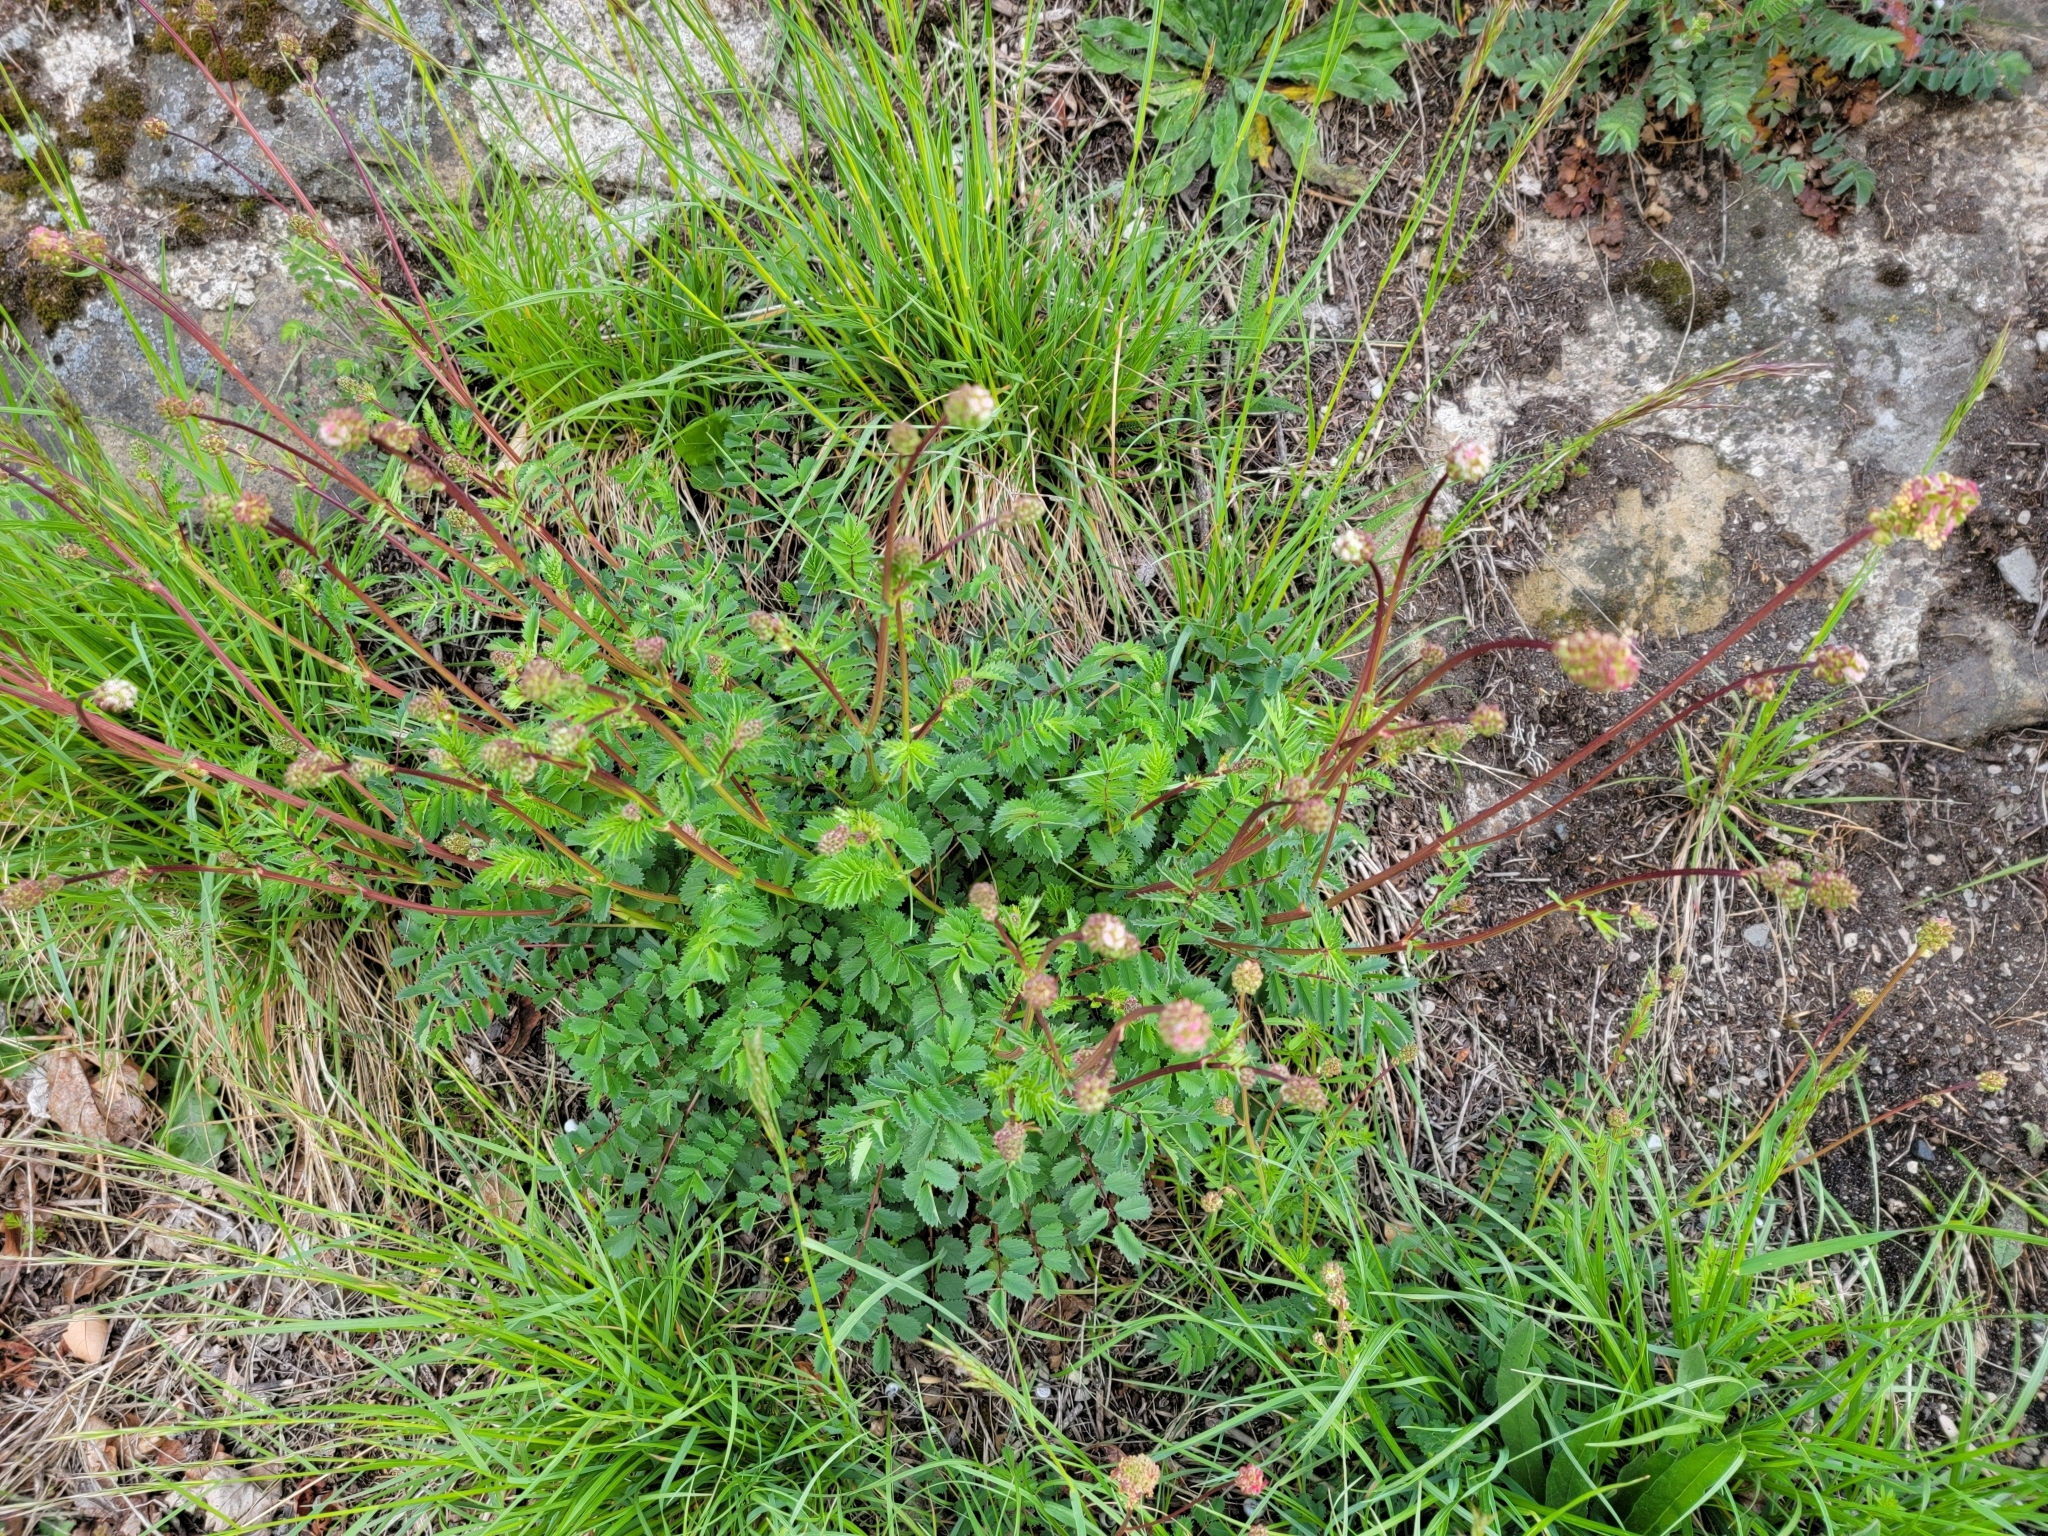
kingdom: Plantae
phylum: Tracheophyta
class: Magnoliopsida
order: Rosales
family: Rosaceae
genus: Poterium
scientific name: Poterium sanguisorba
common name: Salad burnet
